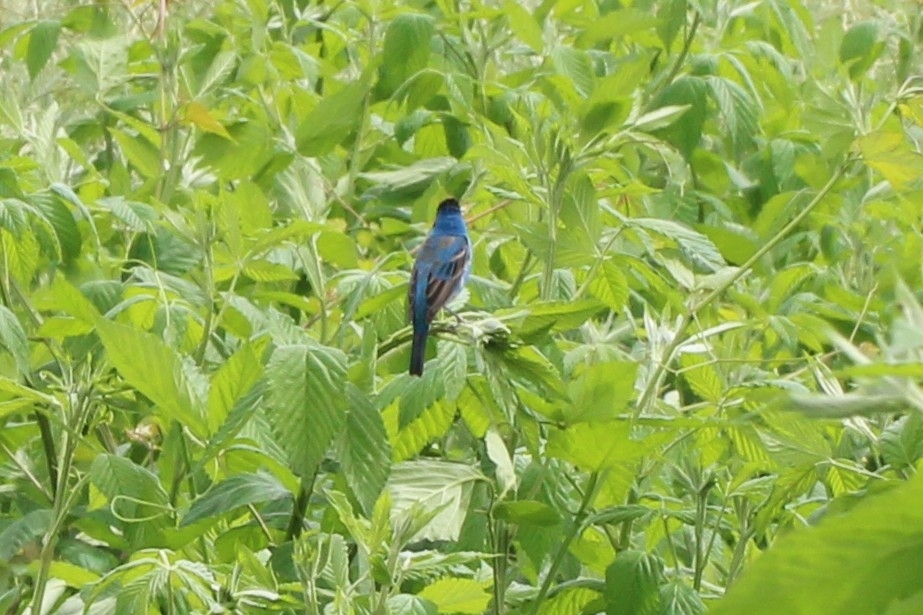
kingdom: Animalia
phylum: Chordata
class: Aves
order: Passeriformes
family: Cardinalidae
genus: Passerina
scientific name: Passerina cyanea
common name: Indigo bunting
